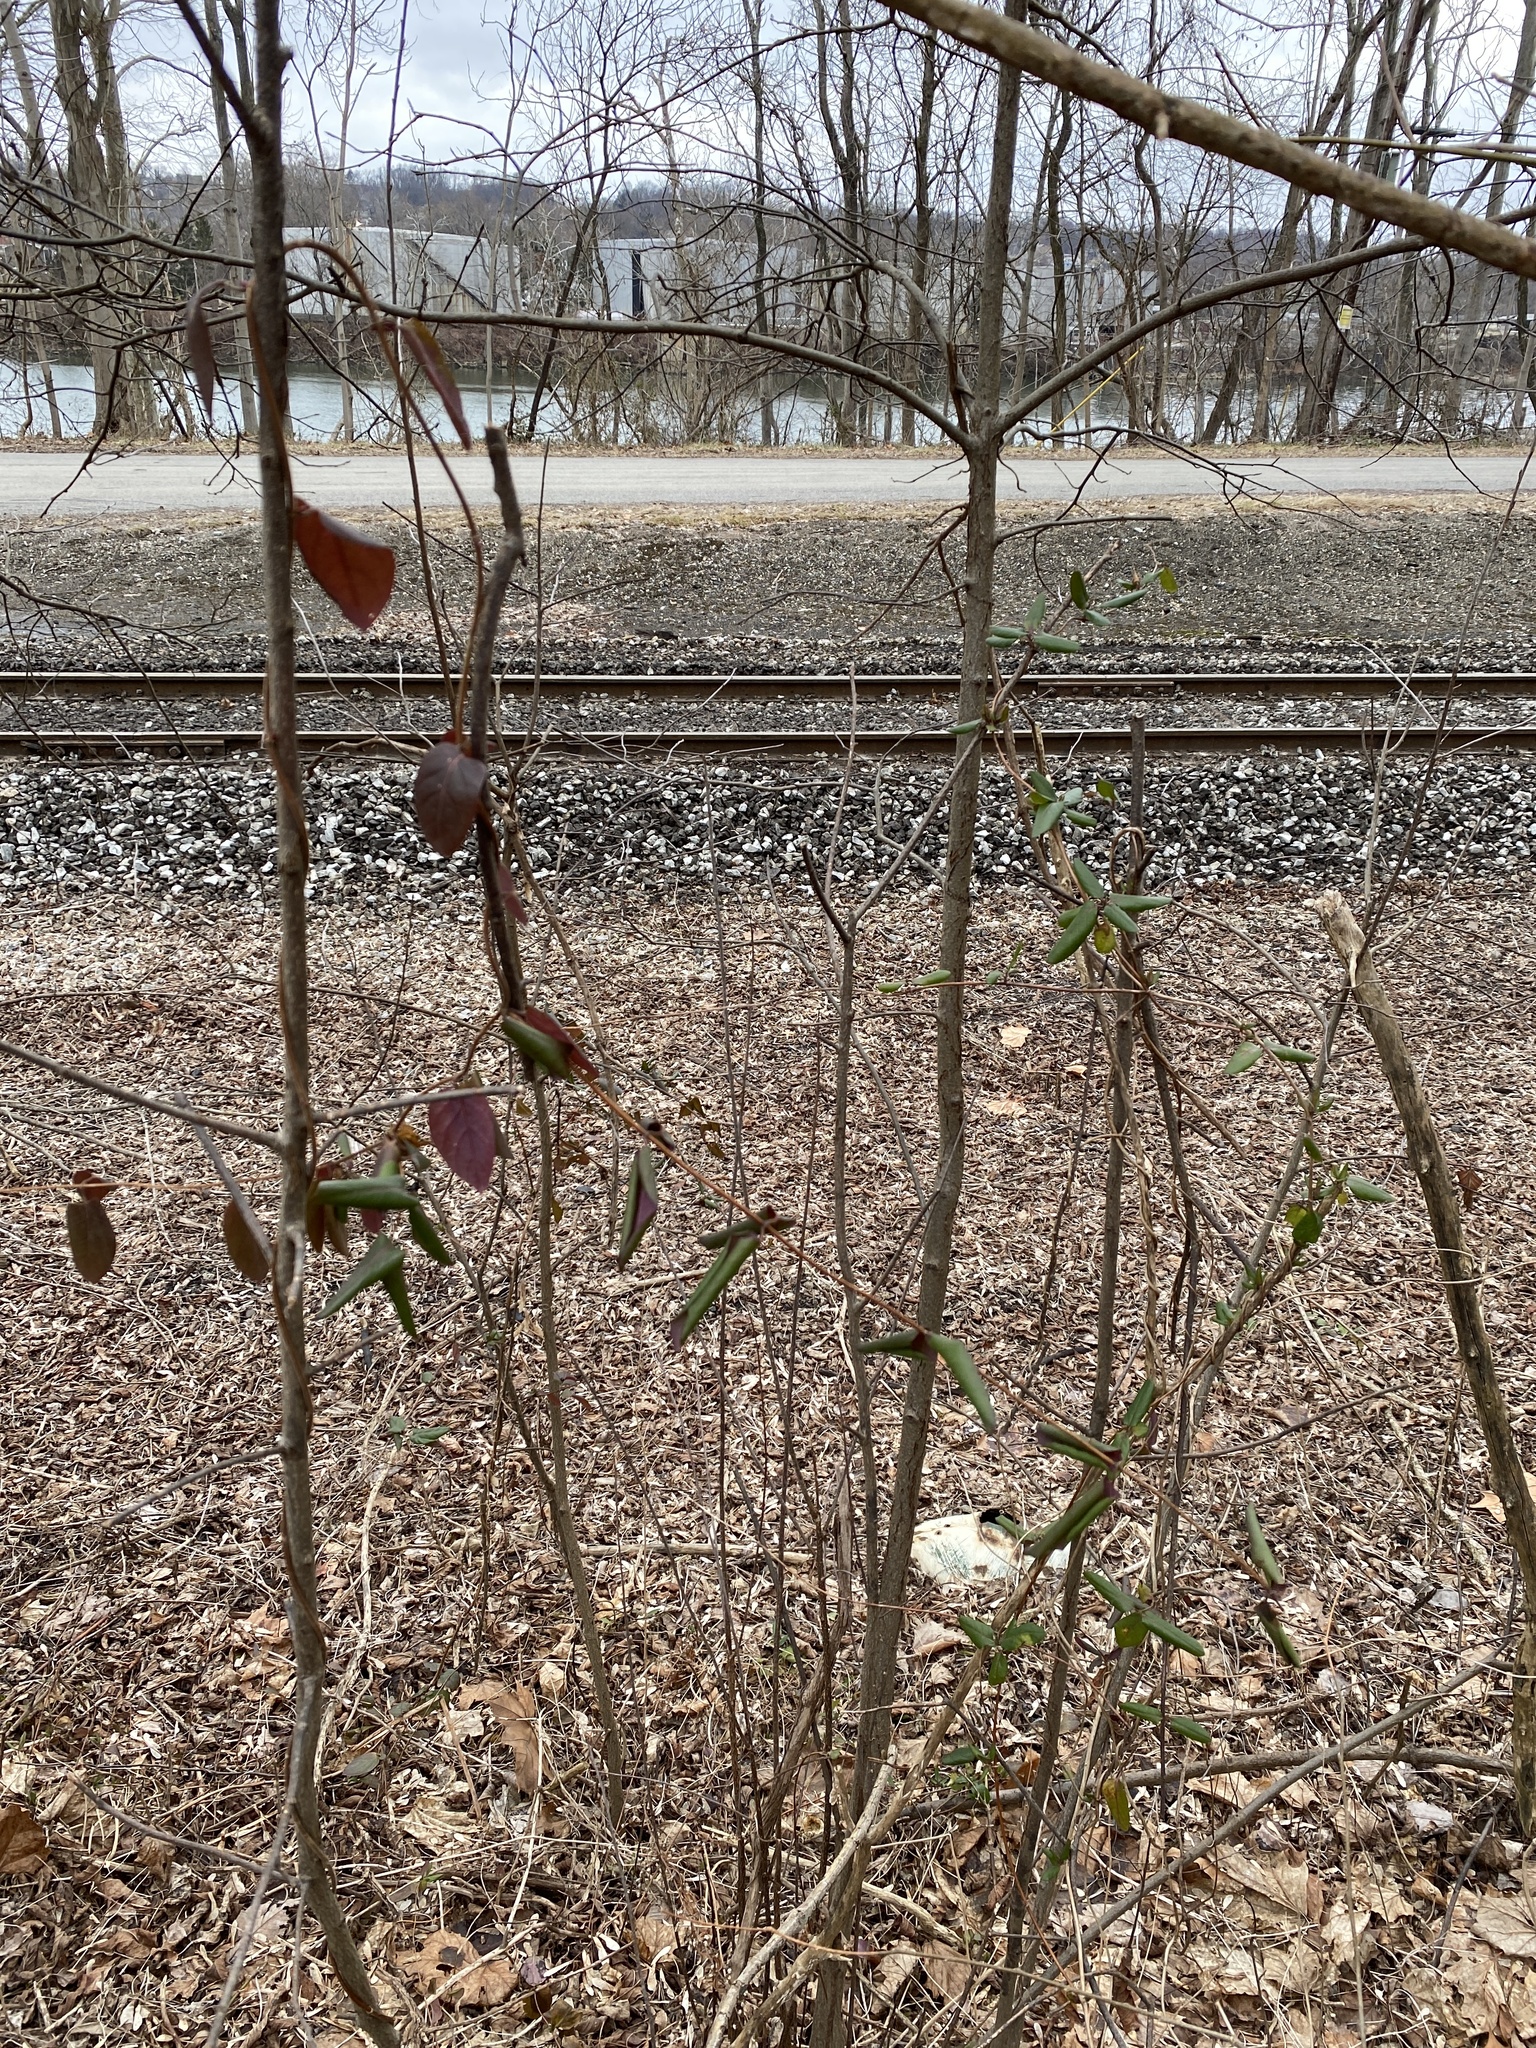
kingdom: Plantae
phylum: Tracheophyta
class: Magnoliopsida
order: Dipsacales
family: Caprifoliaceae
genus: Lonicera
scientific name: Lonicera japonica
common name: Japanese honeysuckle
